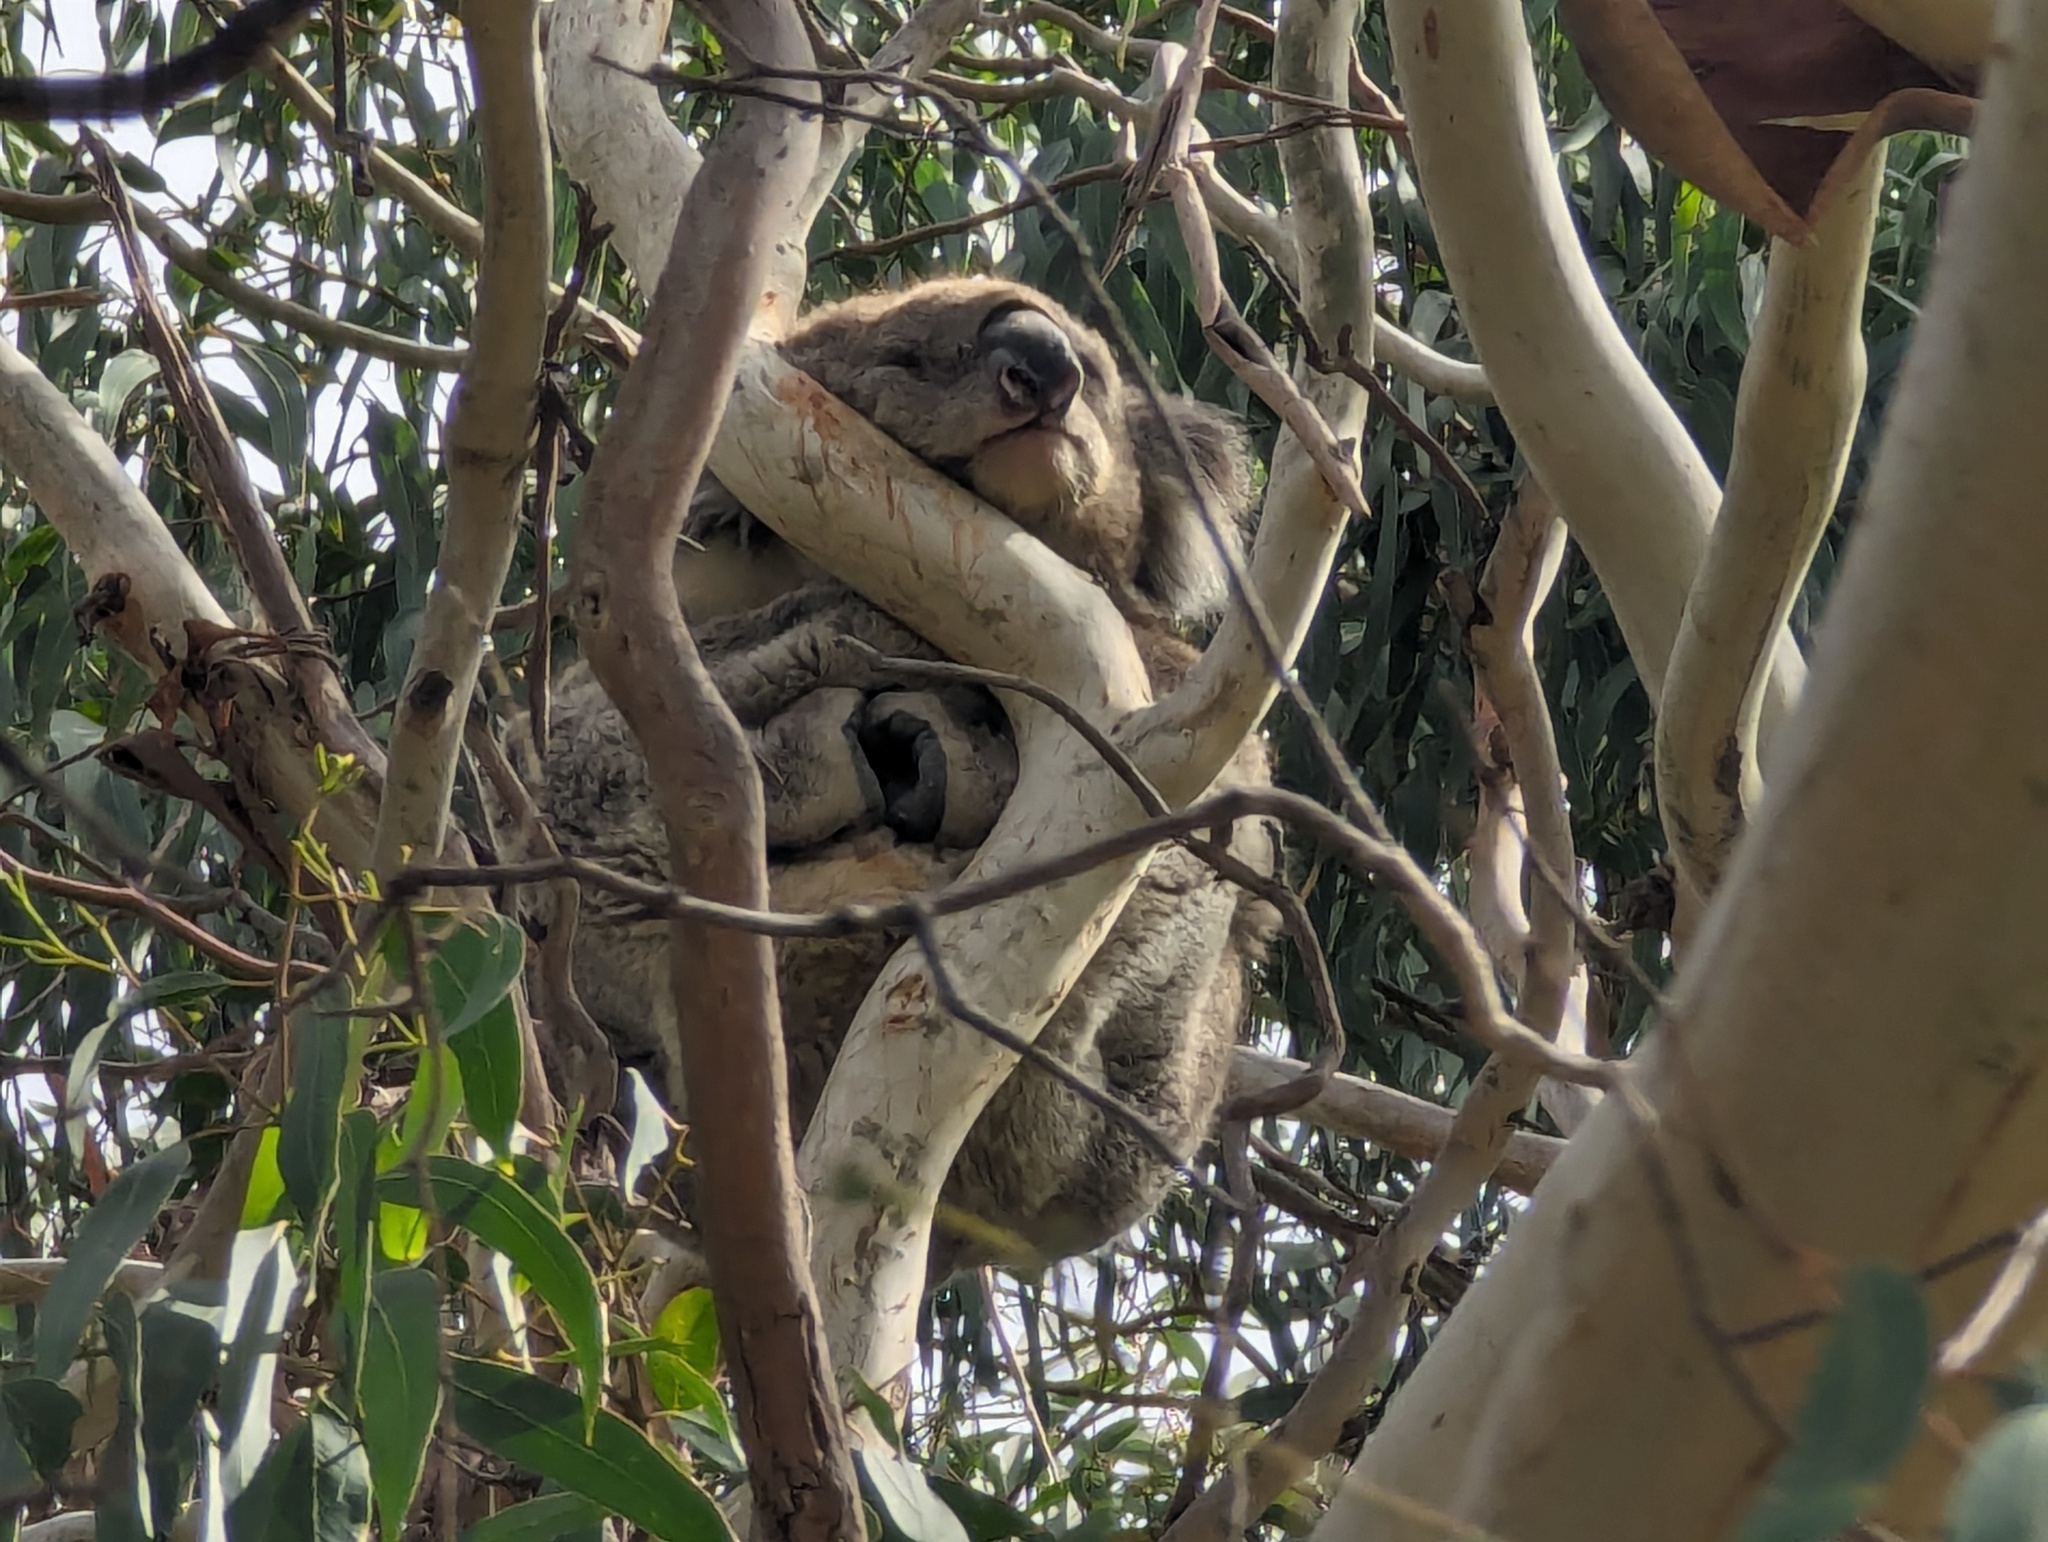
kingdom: Animalia
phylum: Chordata
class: Mammalia
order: Diprotodontia
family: Phascolarctidae
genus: Phascolarctos
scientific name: Phascolarctos cinereus
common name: Koala
